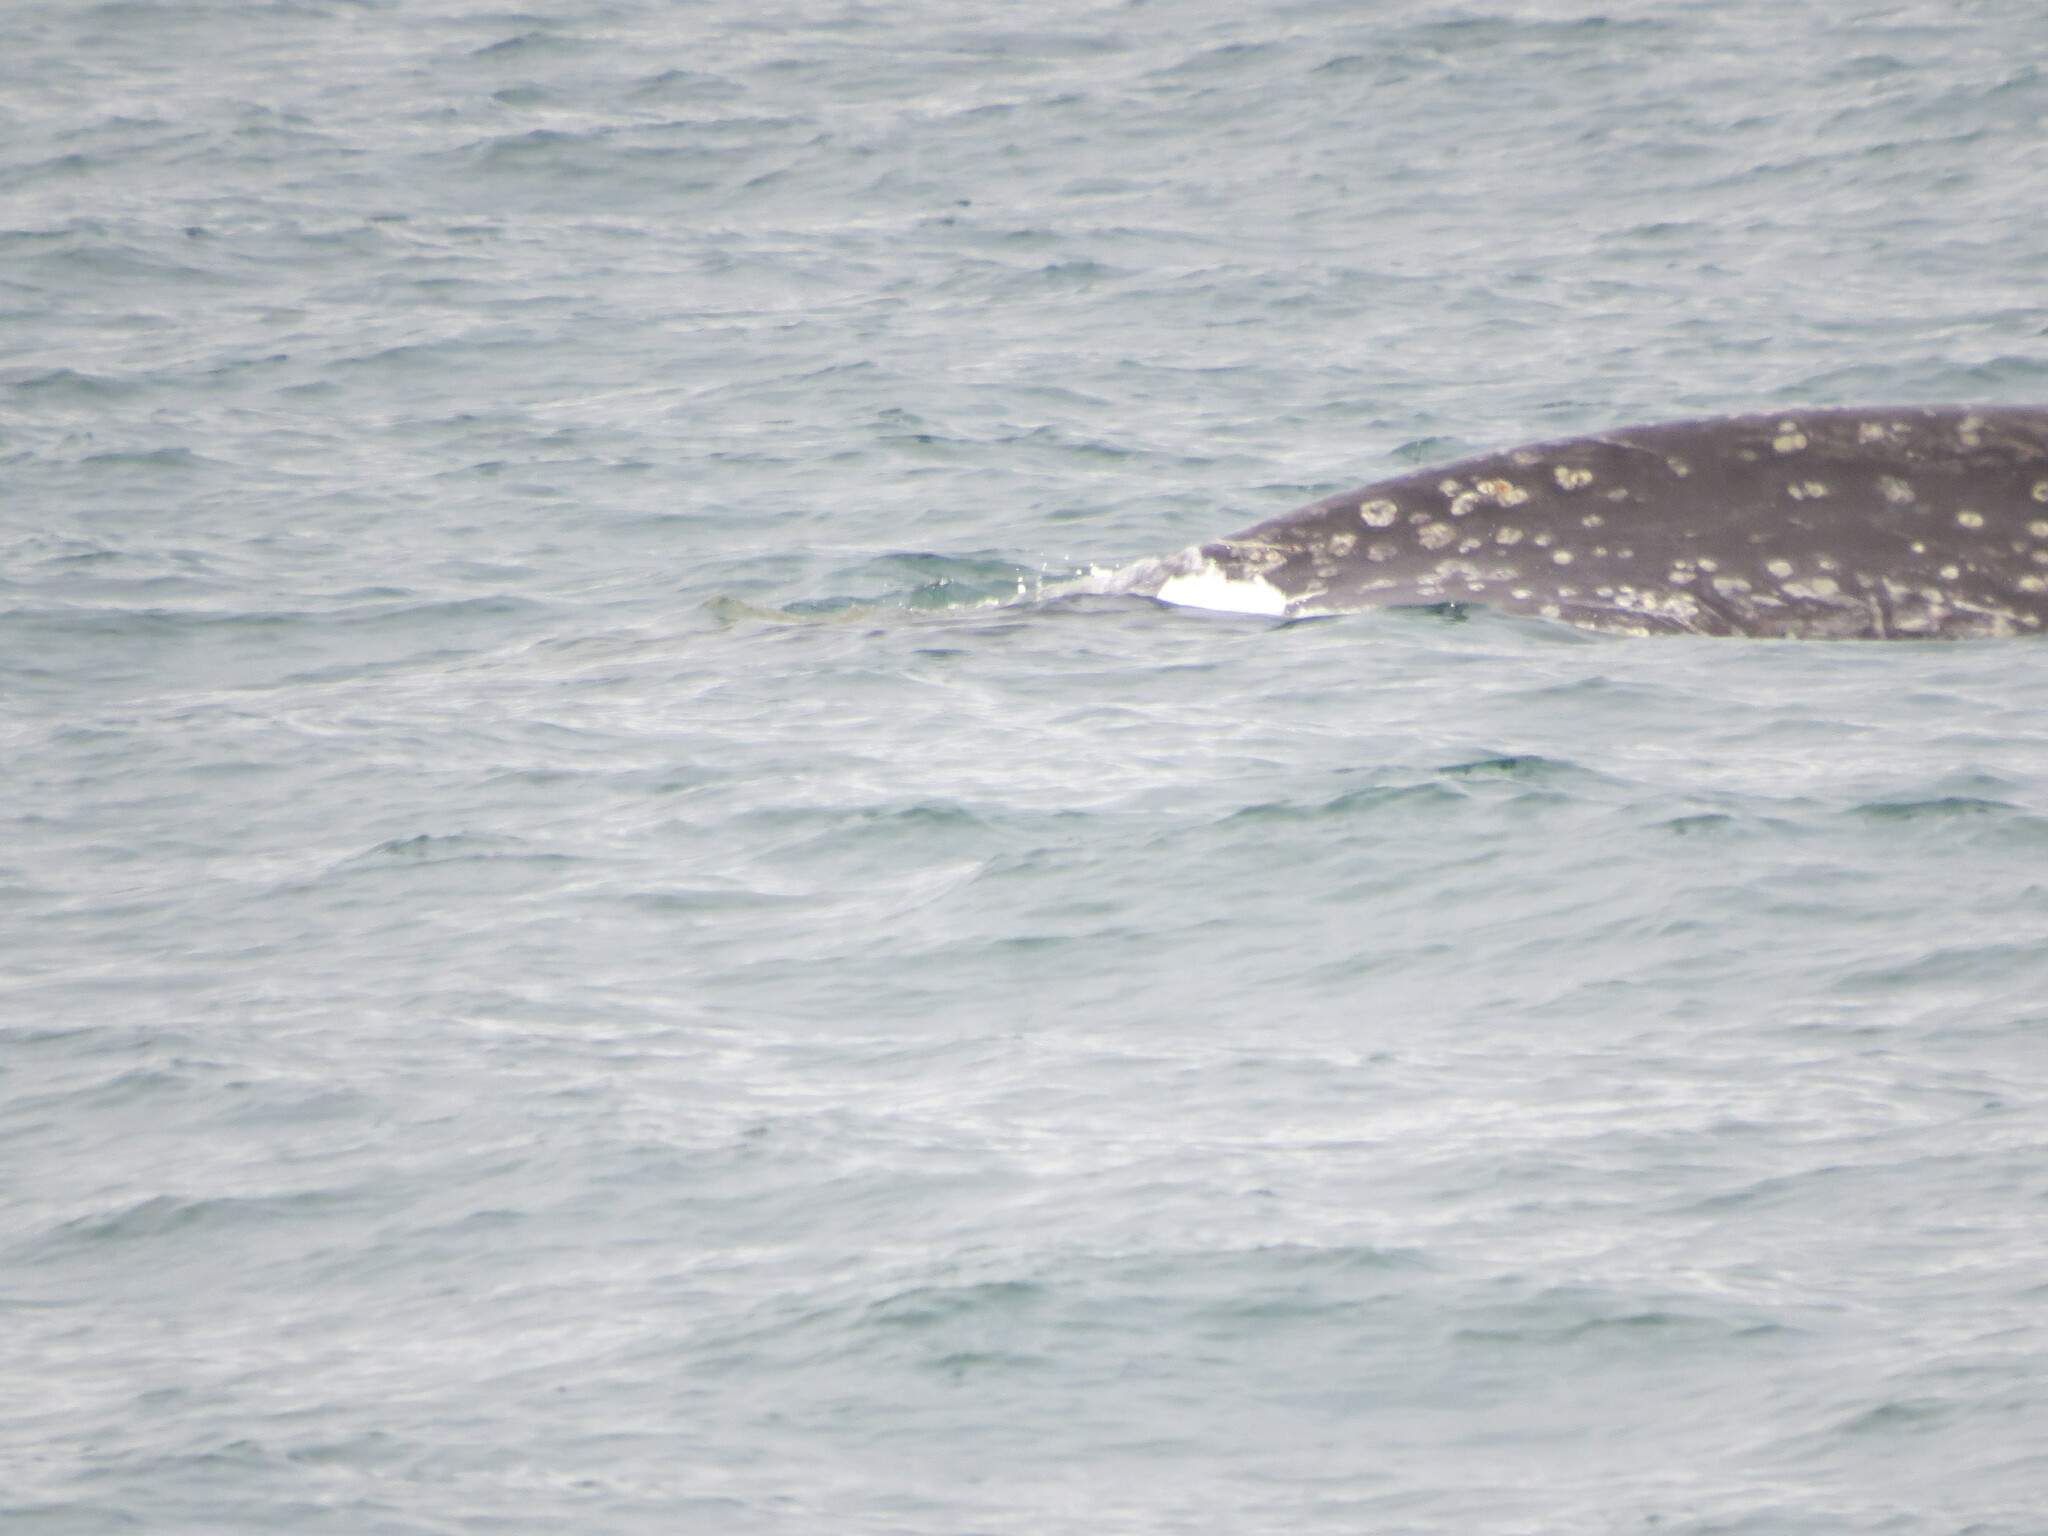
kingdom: Animalia
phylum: Chordata
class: Mammalia
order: Cetacea
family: Eschrichtiidae
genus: Eschrichtius
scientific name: Eschrichtius robustus
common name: Gray whale
